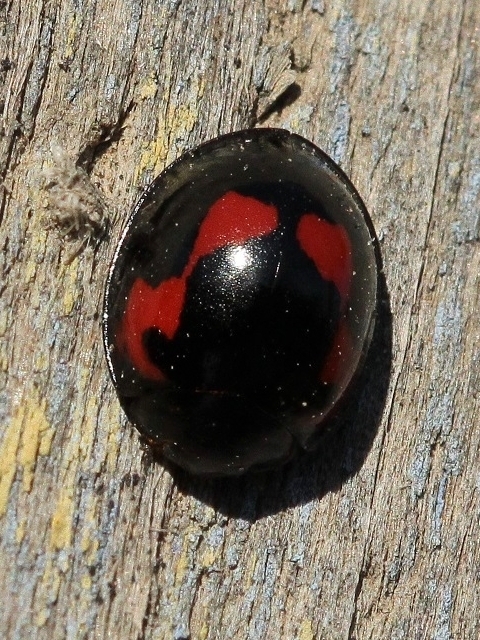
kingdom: Animalia
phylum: Arthropoda
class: Insecta
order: Coleoptera
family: Coccinellidae
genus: Brumus
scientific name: Brumus quadripustulatus
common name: Ladybird beetle
